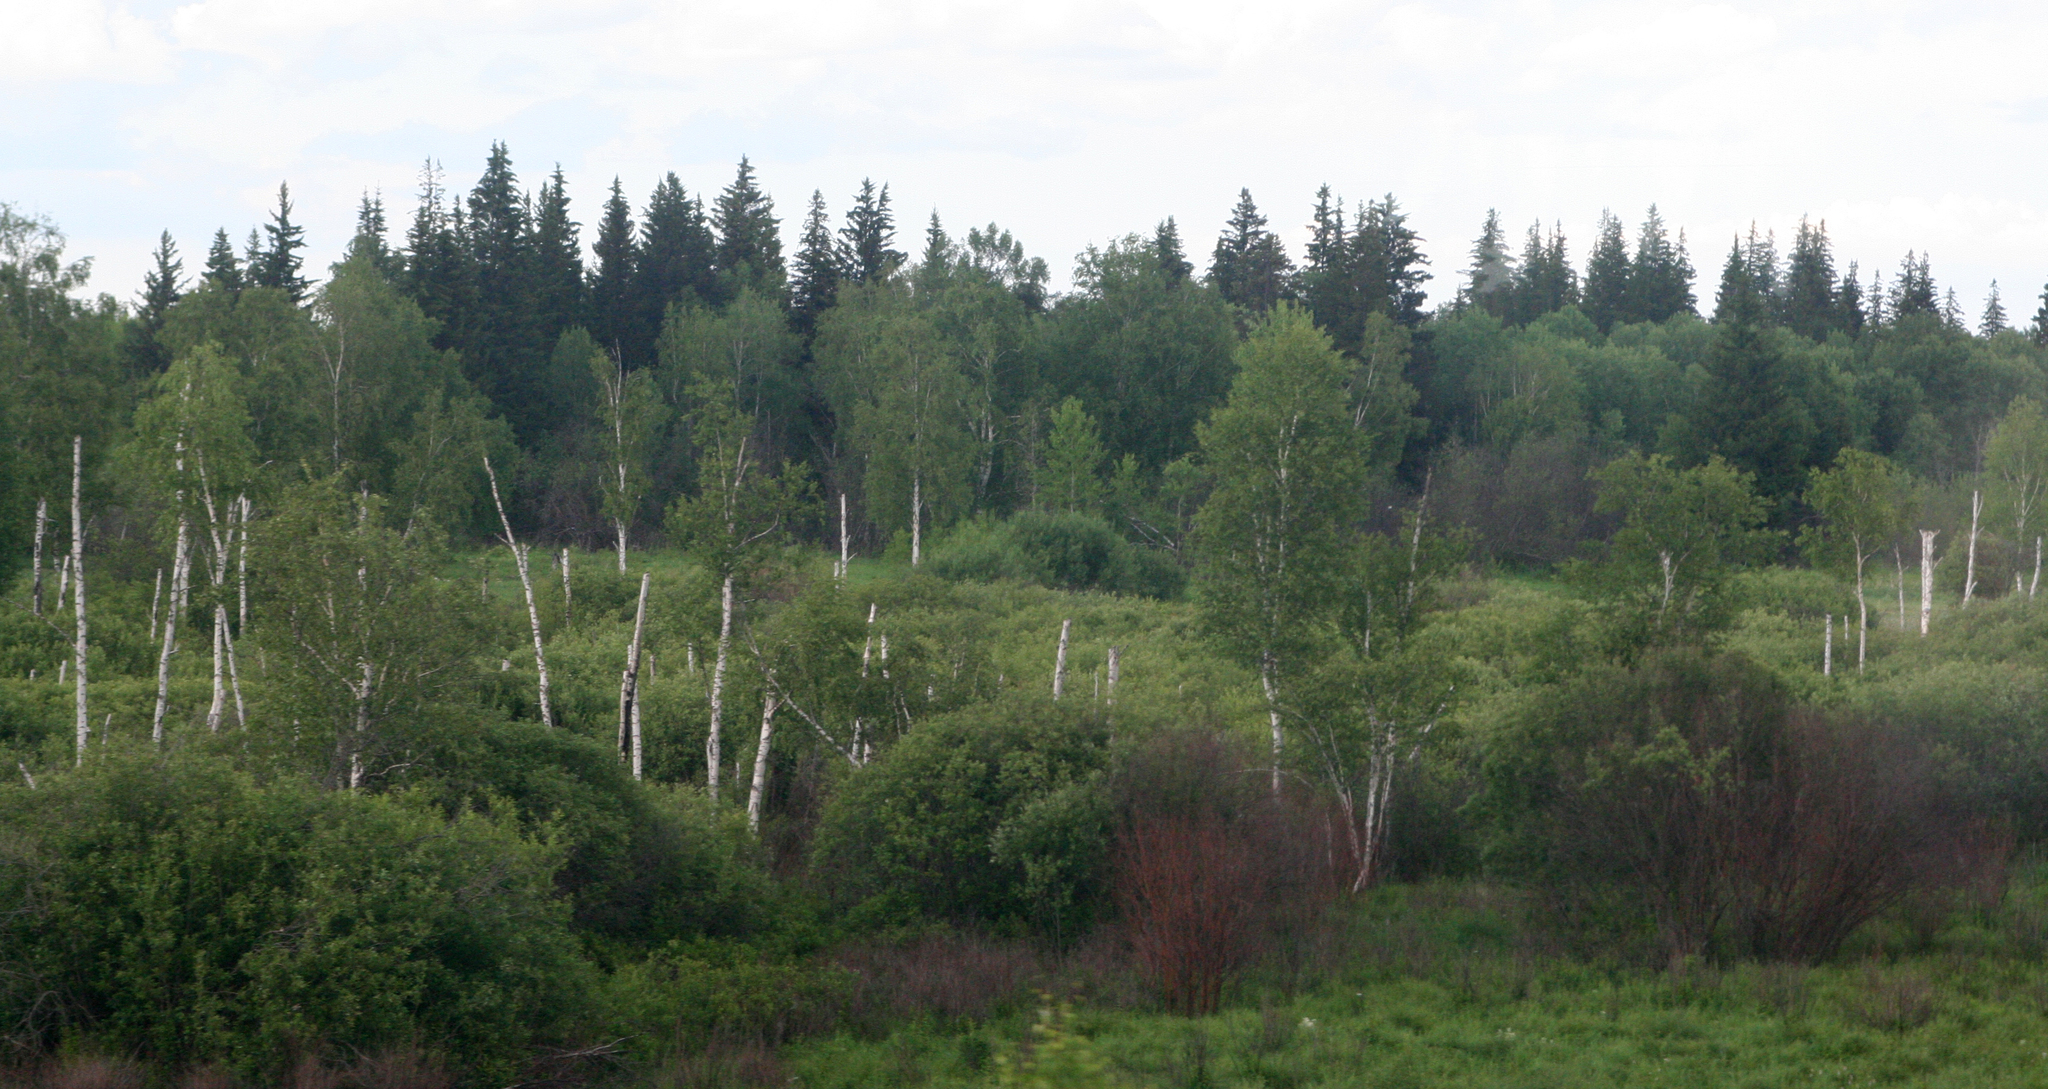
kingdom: Plantae
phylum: Tracheophyta
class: Pinopsida
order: Pinales
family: Pinaceae
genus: Picea
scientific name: Picea obovata
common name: Siberian spruce
